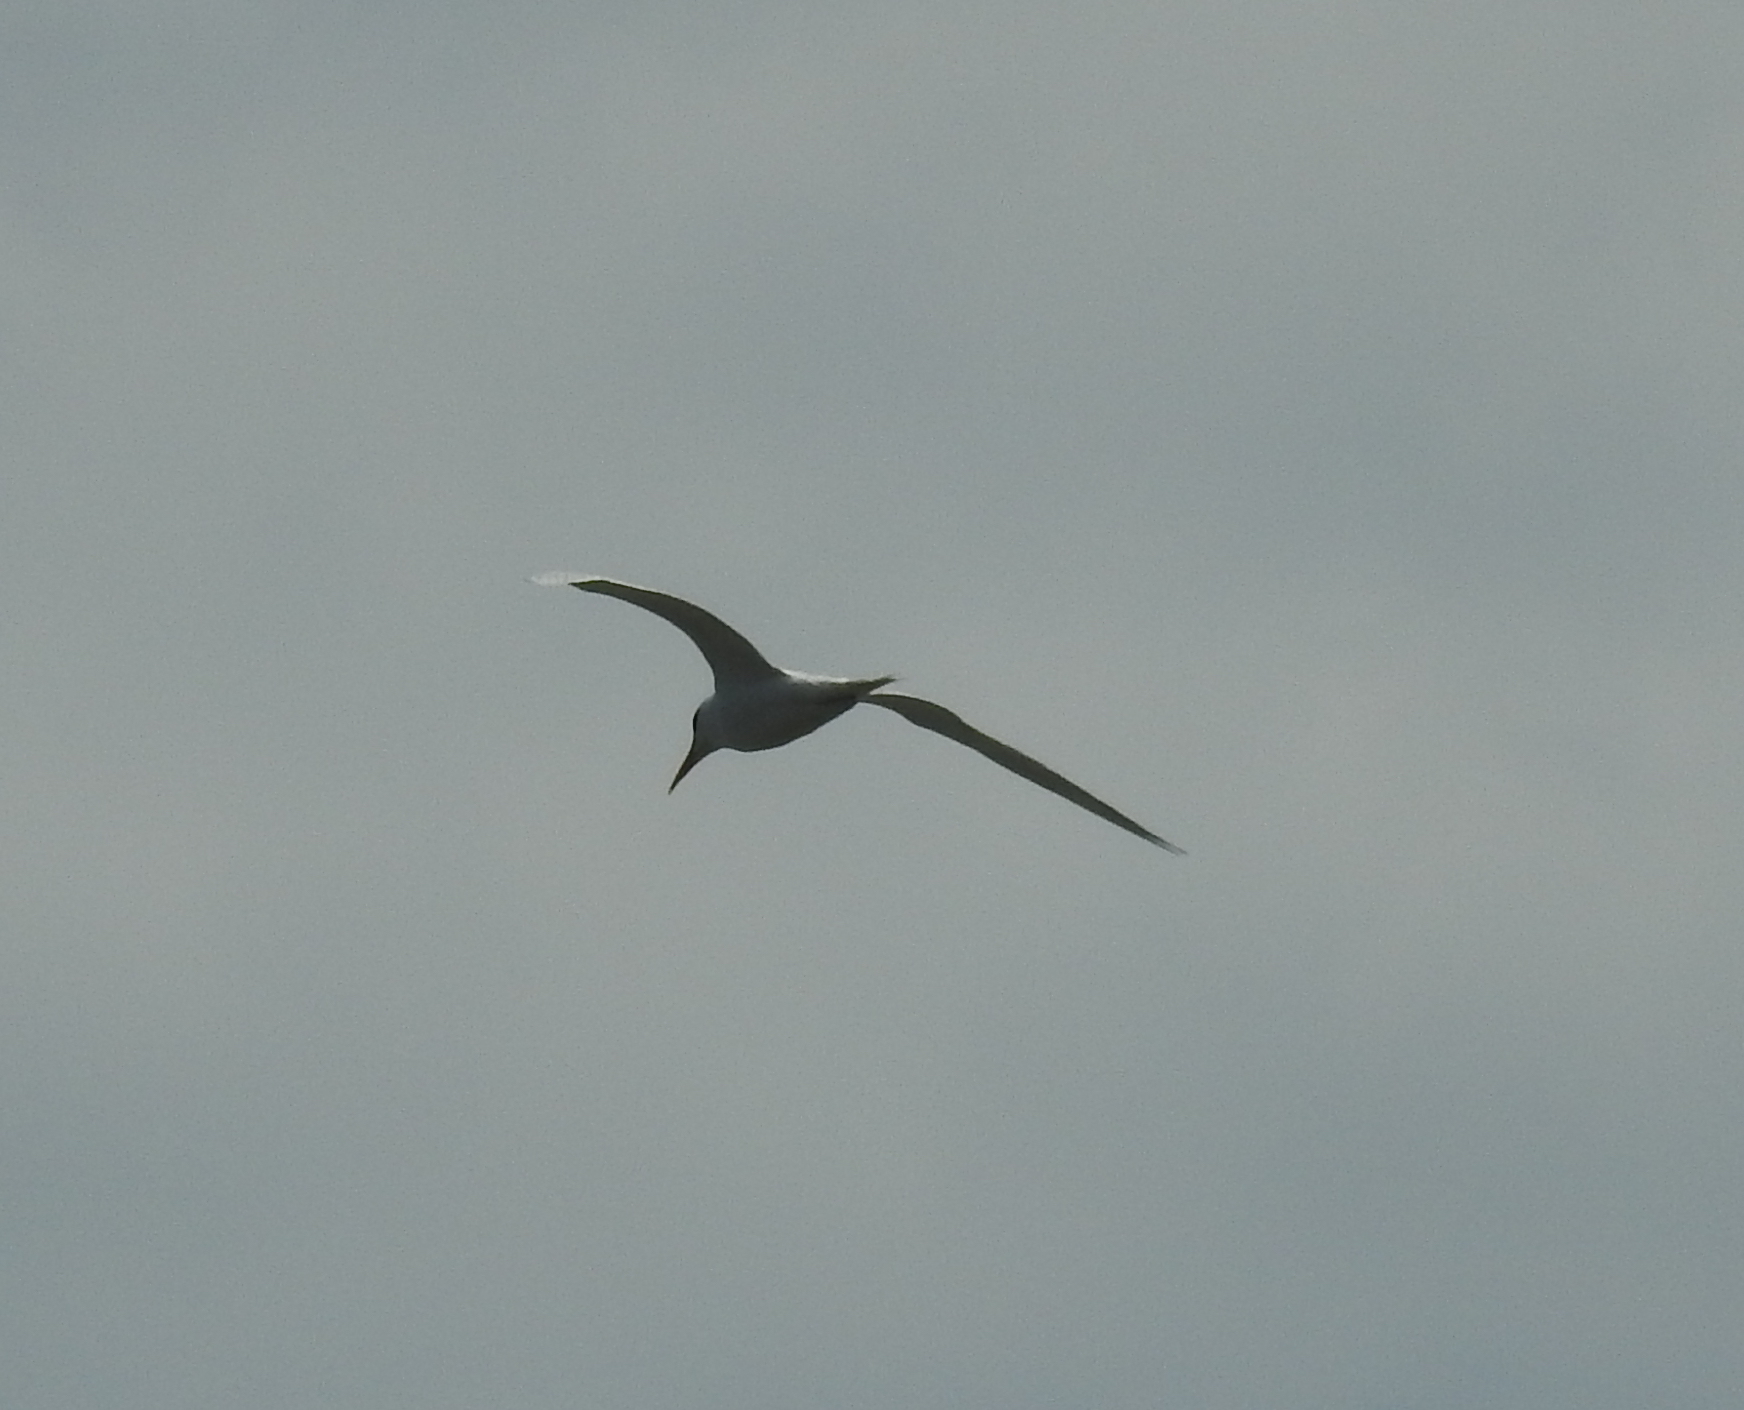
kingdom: Animalia
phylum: Chordata
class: Aves
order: Charadriiformes
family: Laridae
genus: Thalasseus
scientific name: Thalasseus maximus
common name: Royal tern
